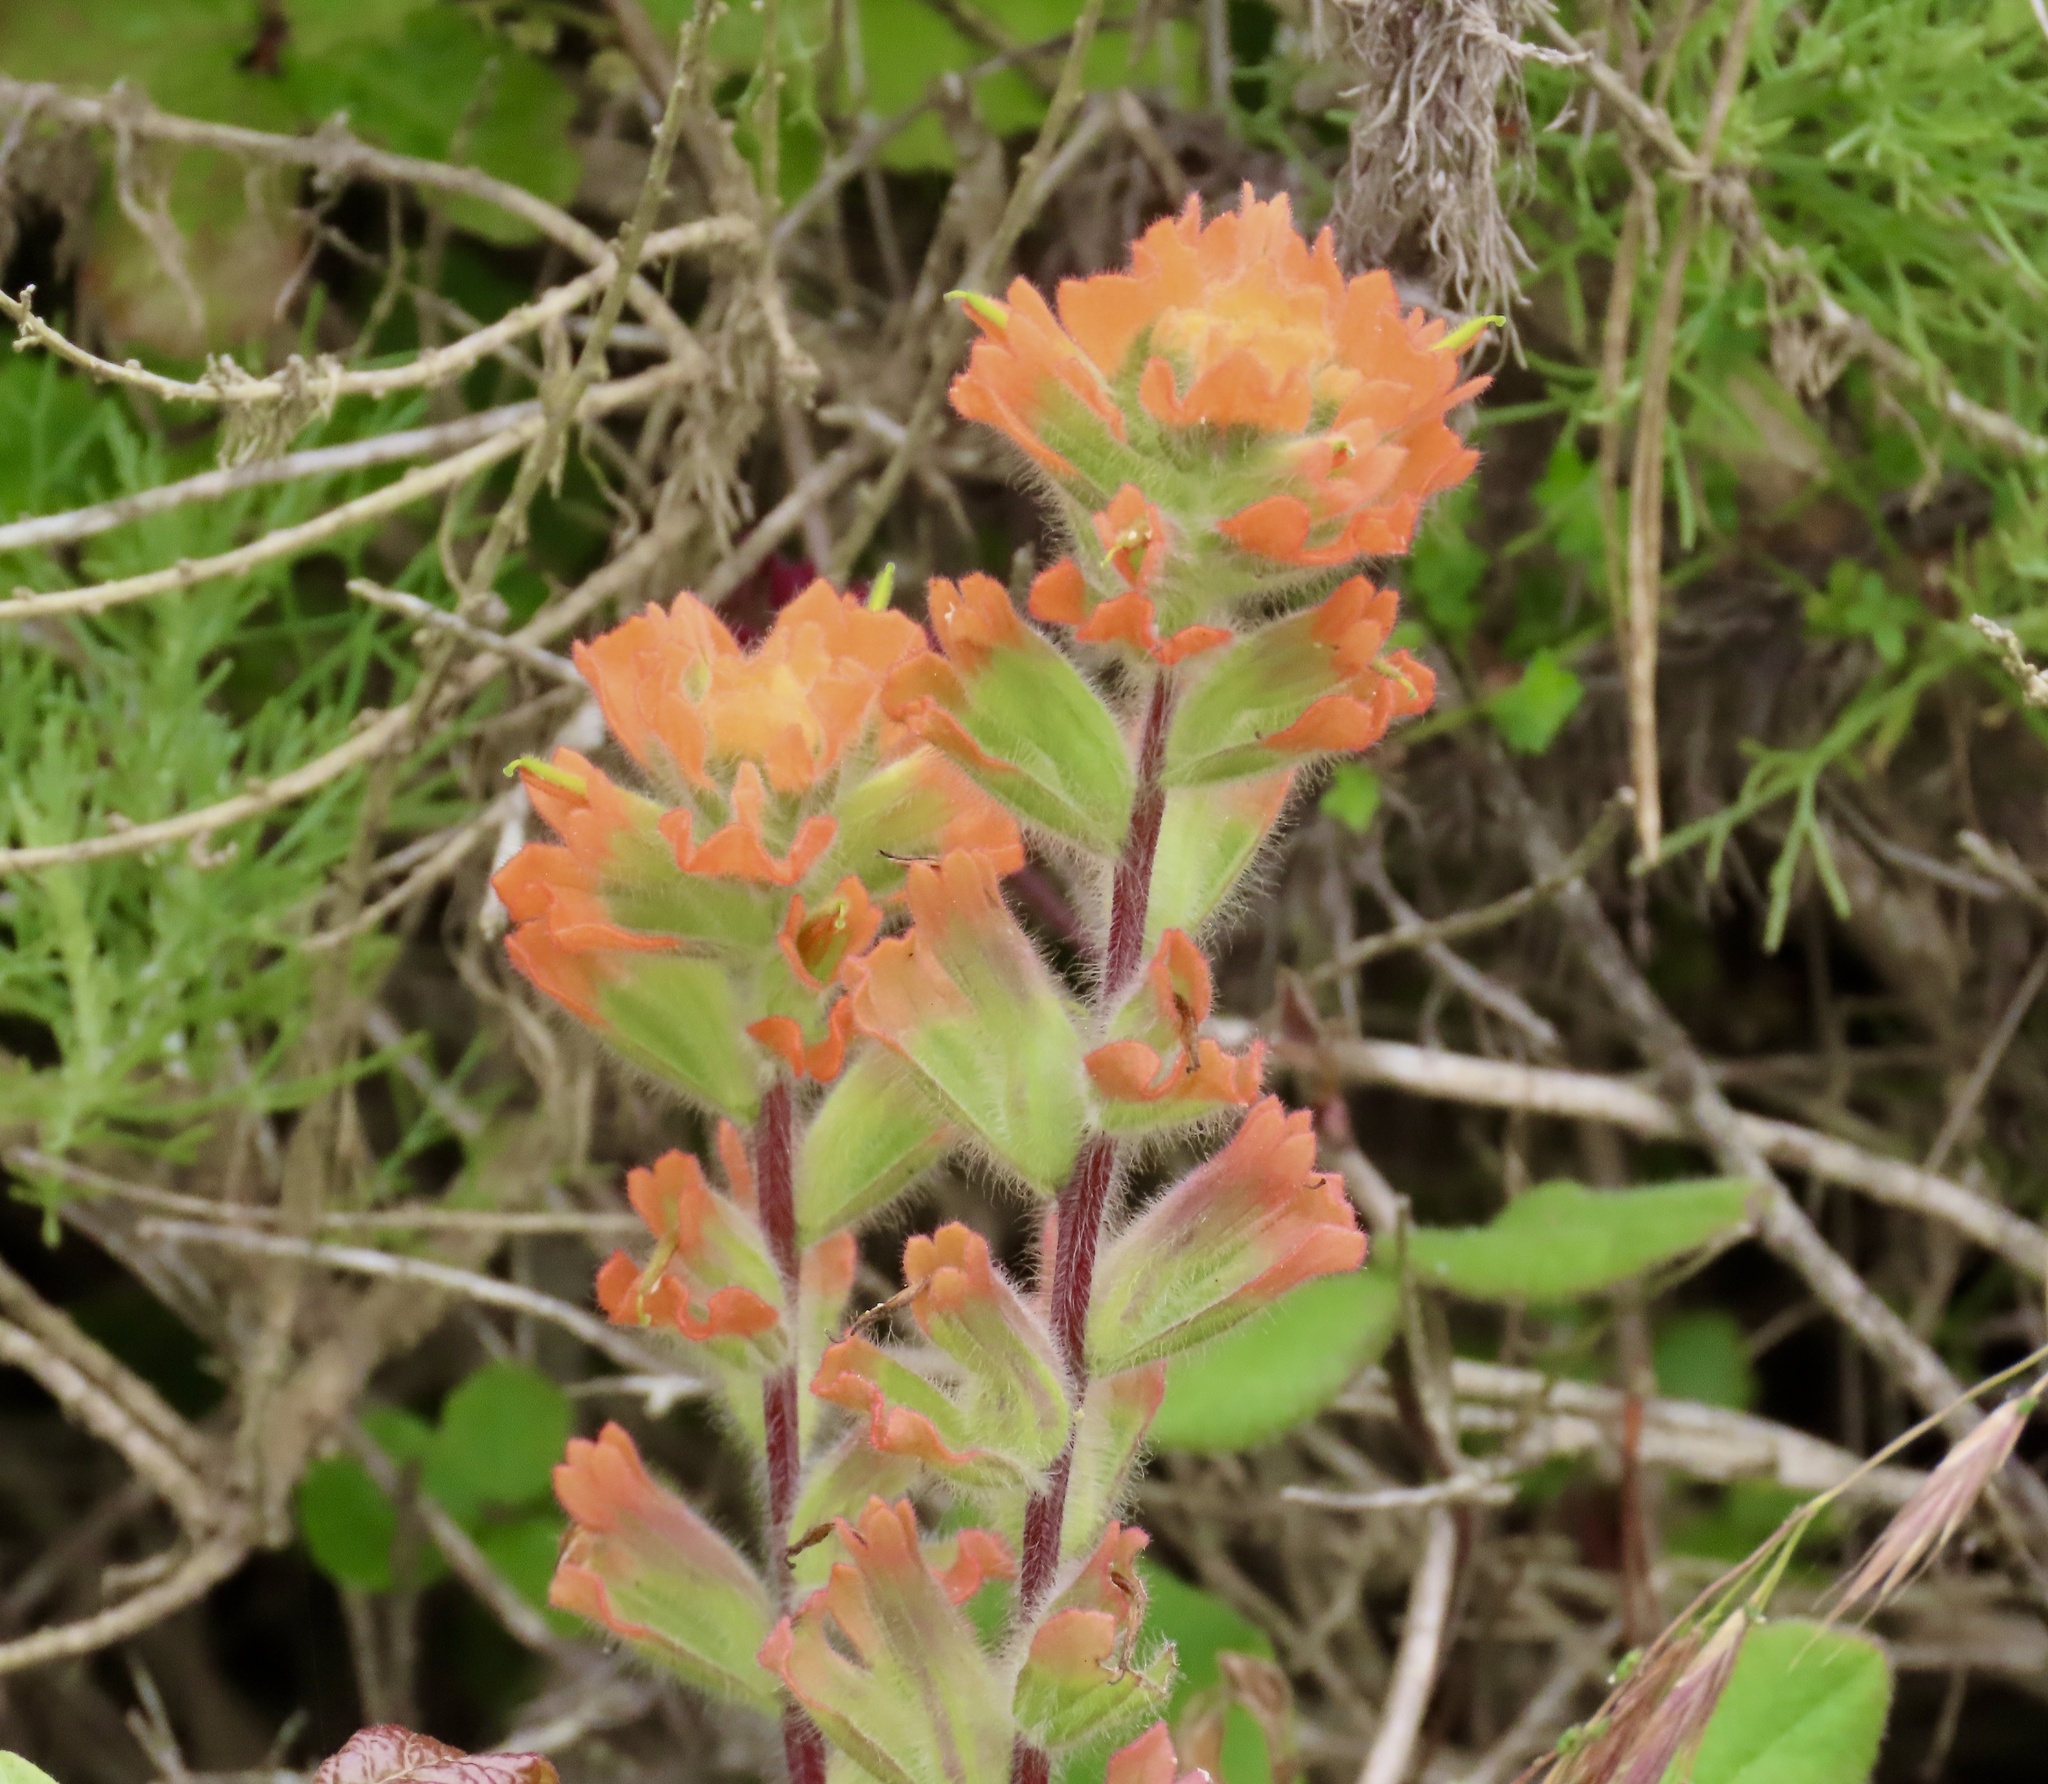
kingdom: Plantae
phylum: Tracheophyta
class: Magnoliopsida
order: Lamiales
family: Orobanchaceae
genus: Castilleja
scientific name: Castilleja latifolia
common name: Monterey indian paintbrush
